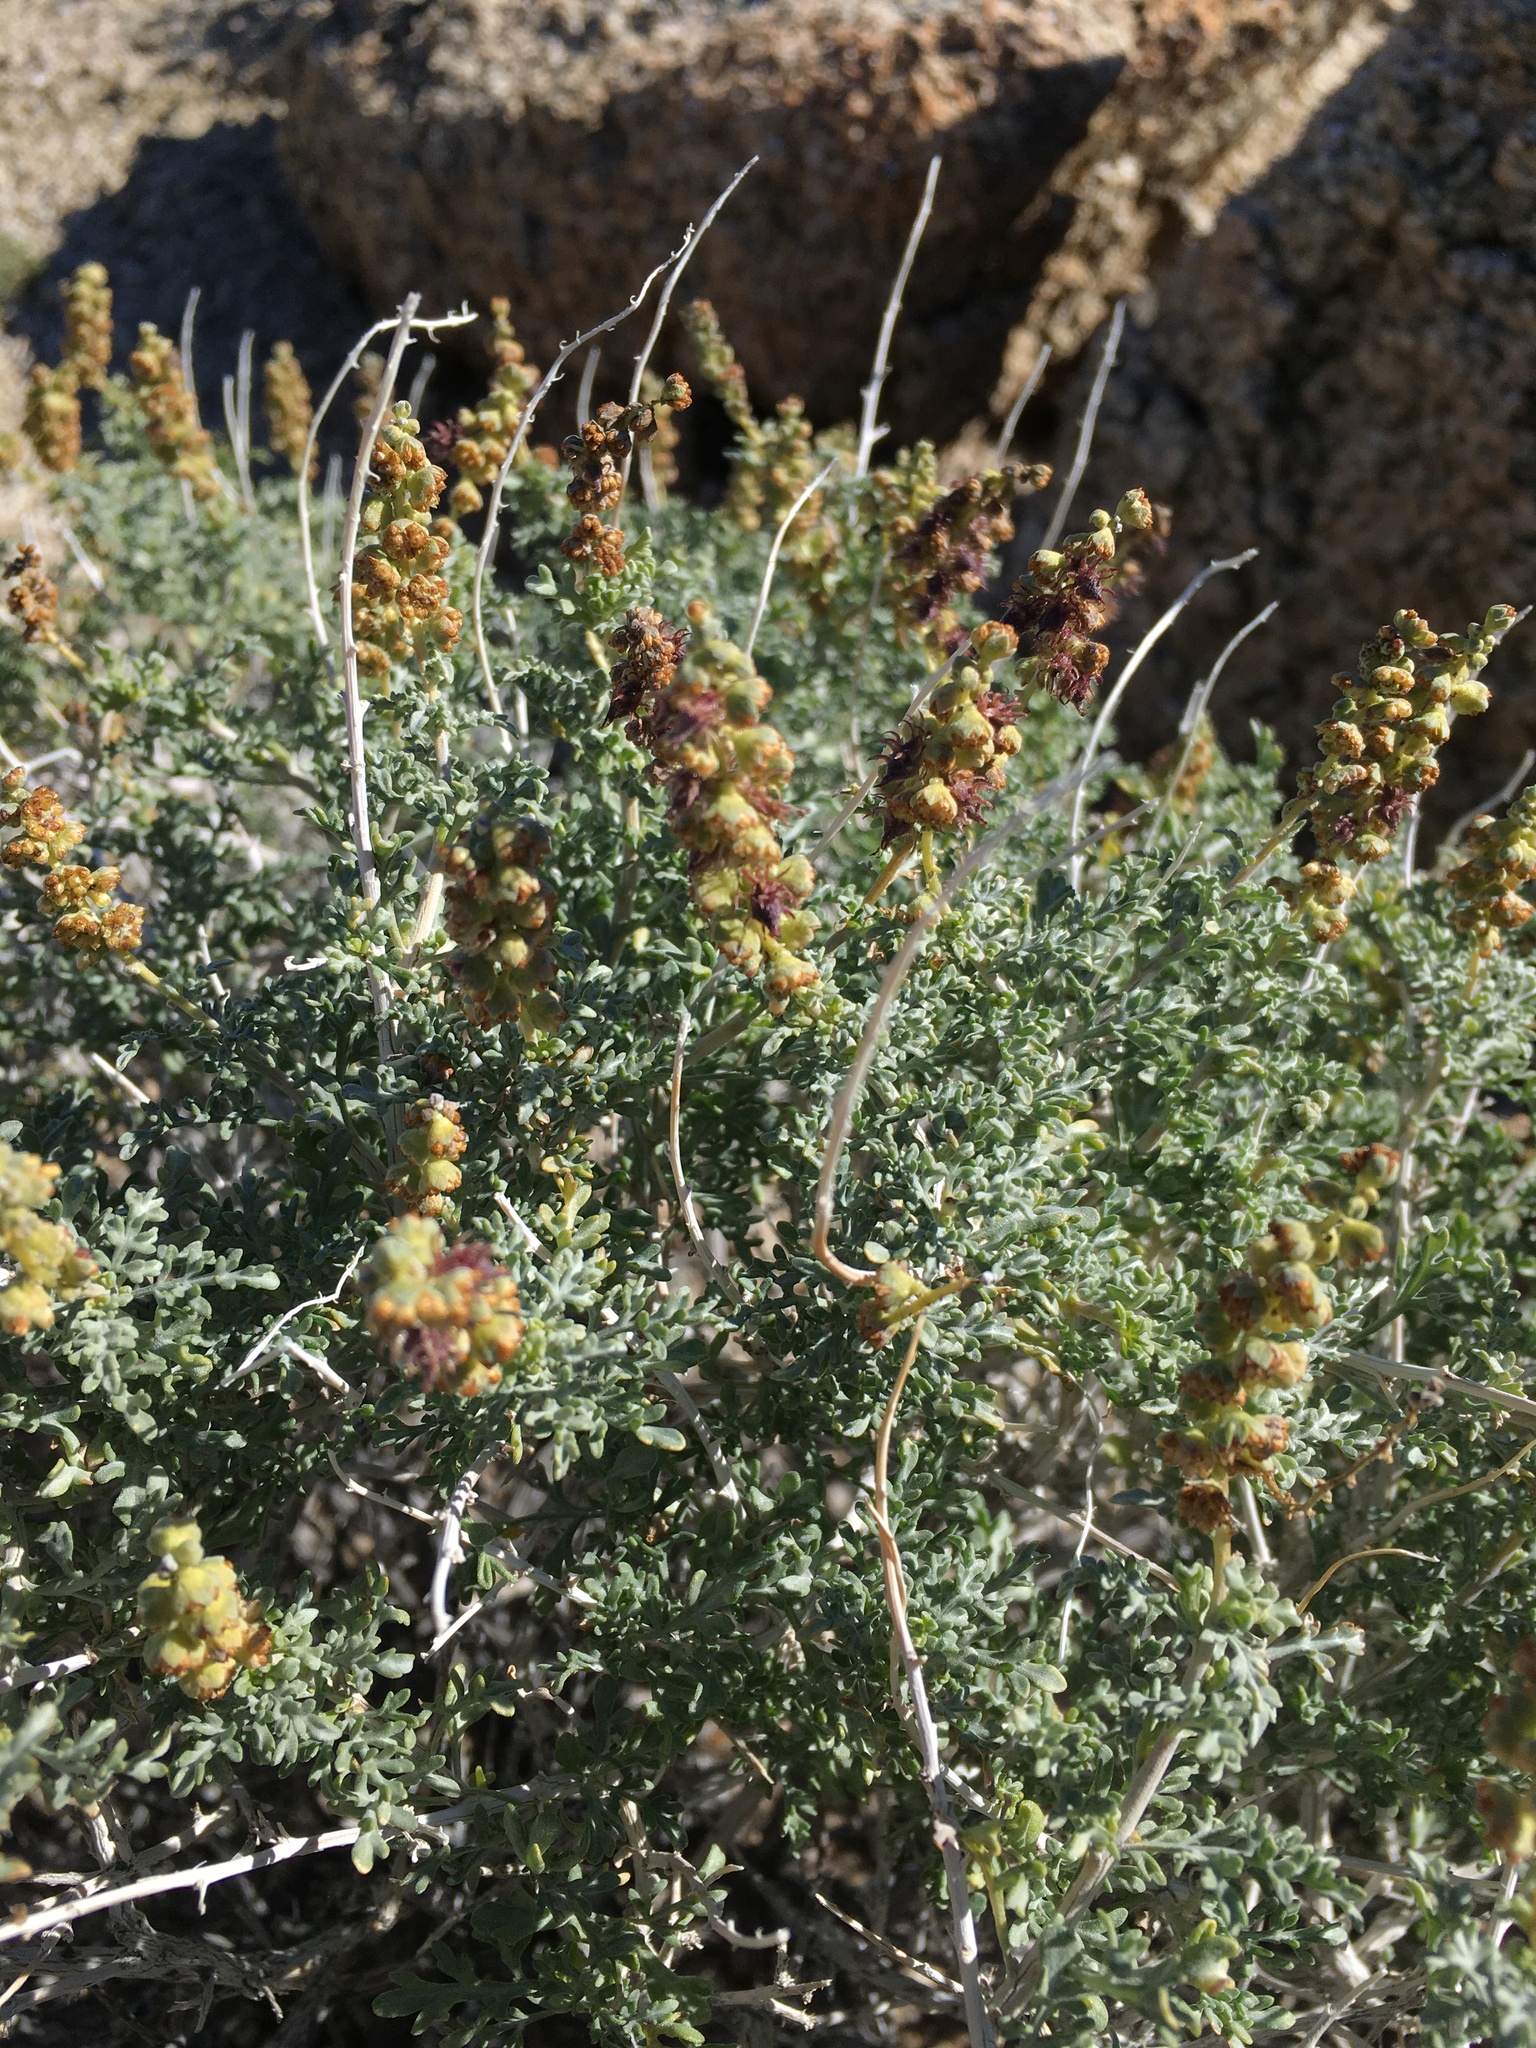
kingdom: Plantae
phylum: Tracheophyta
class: Magnoliopsida
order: Asterales
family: Asteraceae
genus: Ambrosia
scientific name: Ambrosia dumosa
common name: Bur-sage
